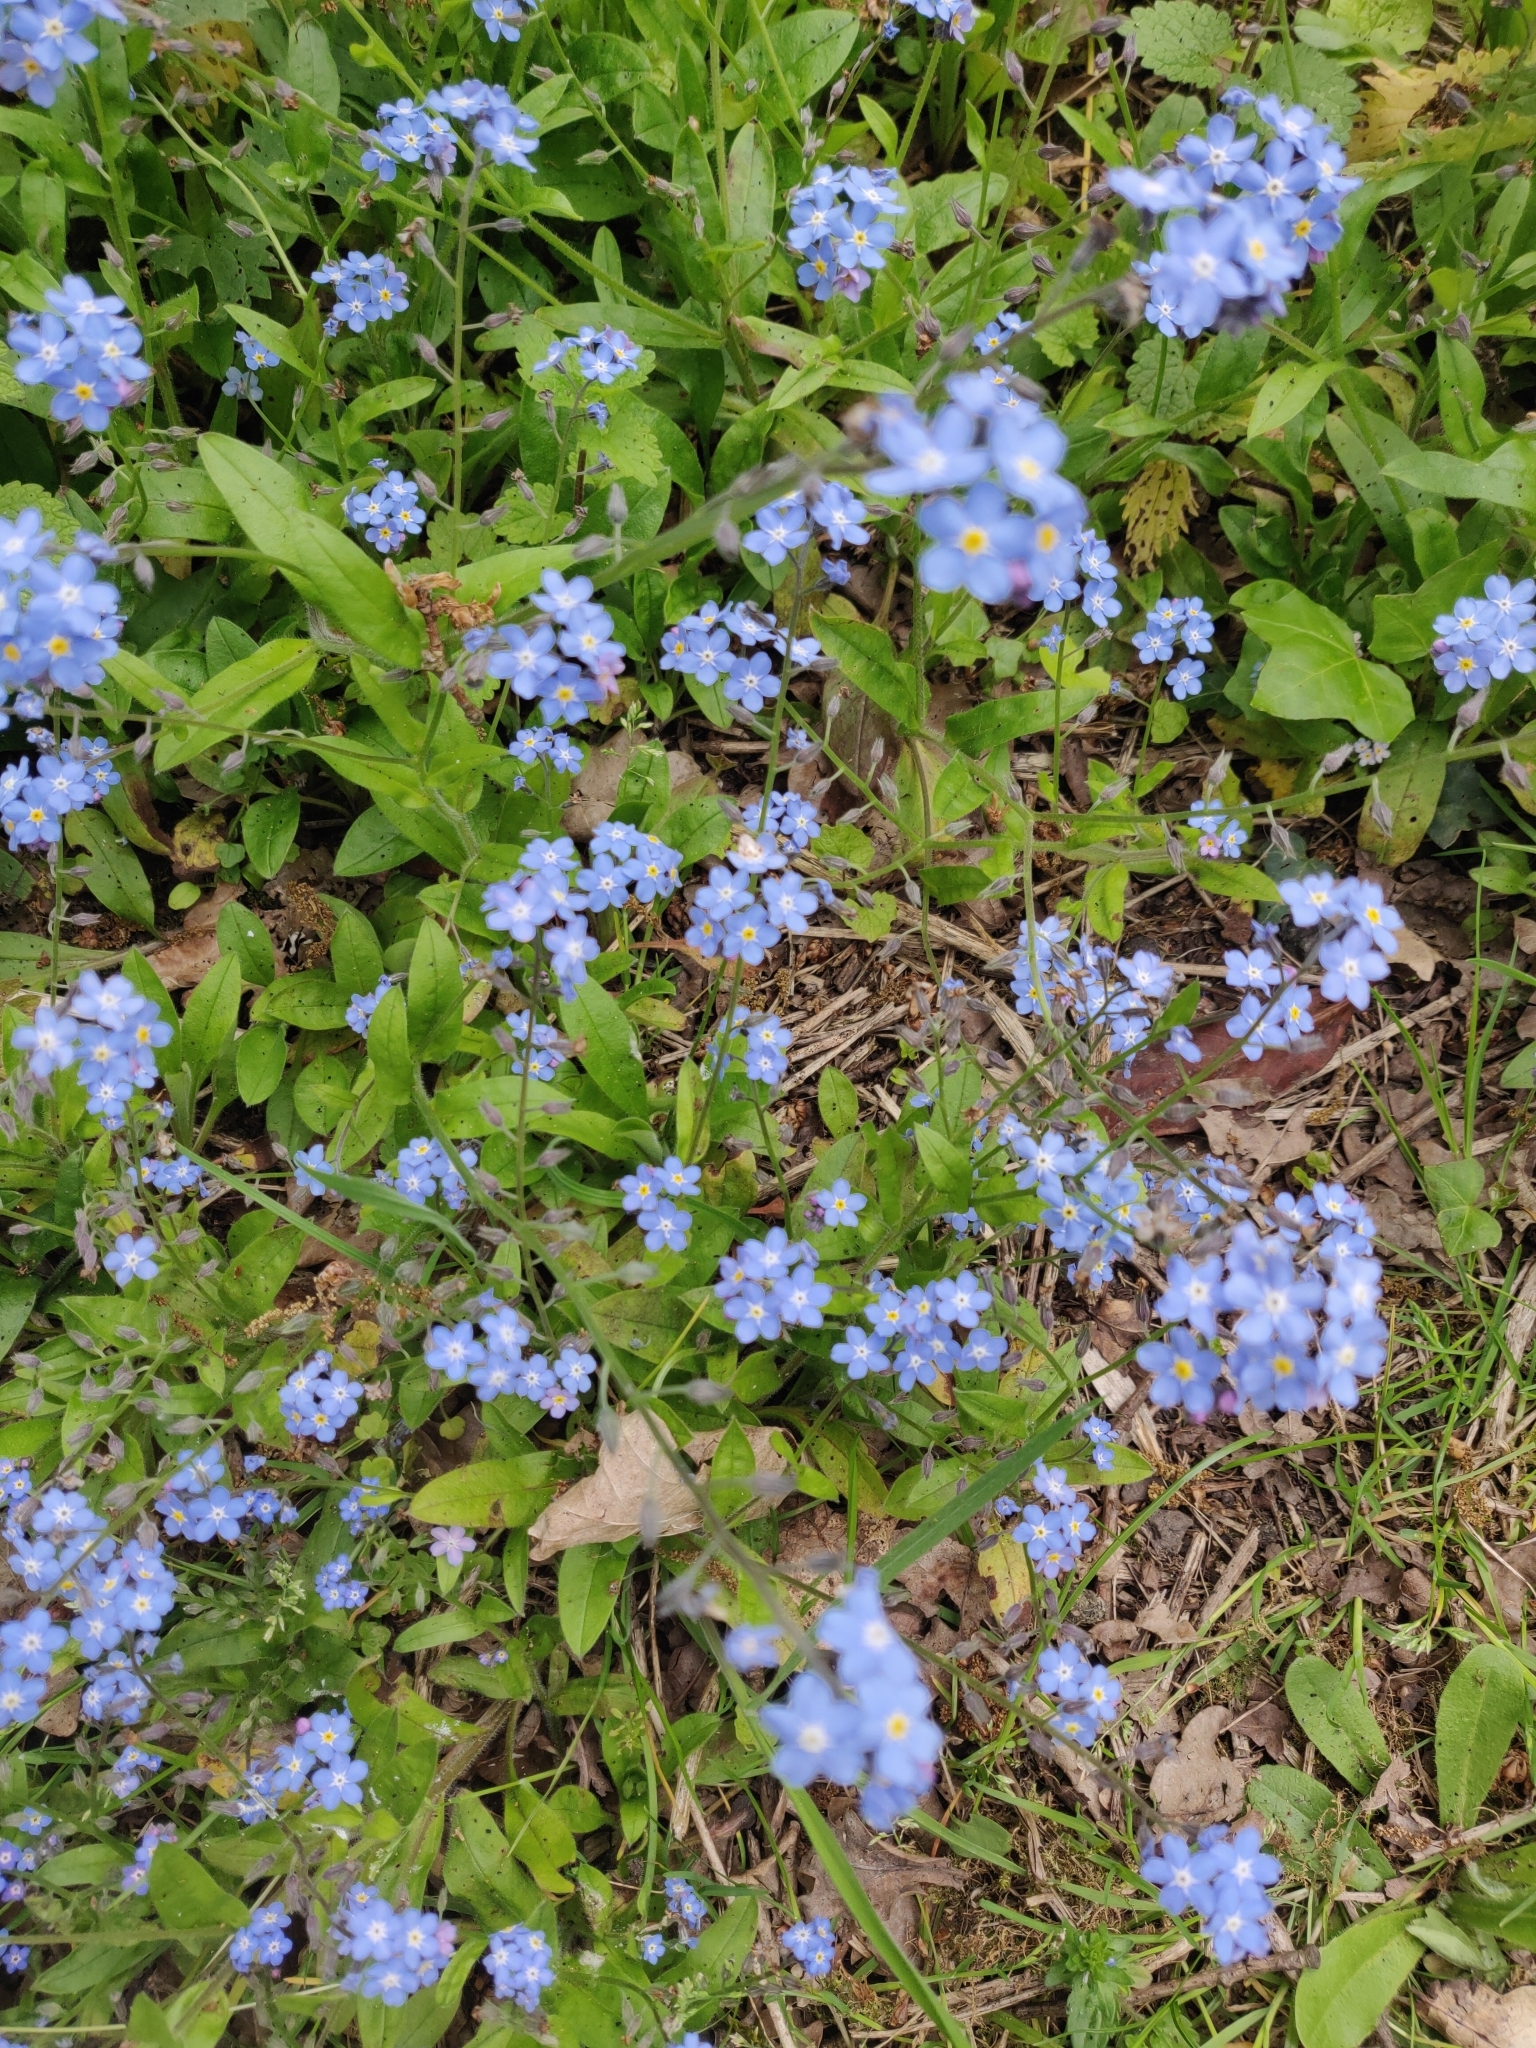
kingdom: Plantae
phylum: Tracheophyta
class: Magnoliopsida
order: Boraginales
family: Boraginaceae
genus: Myosotis
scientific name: Myosotis sylvatica
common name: Wood forget-me-not
